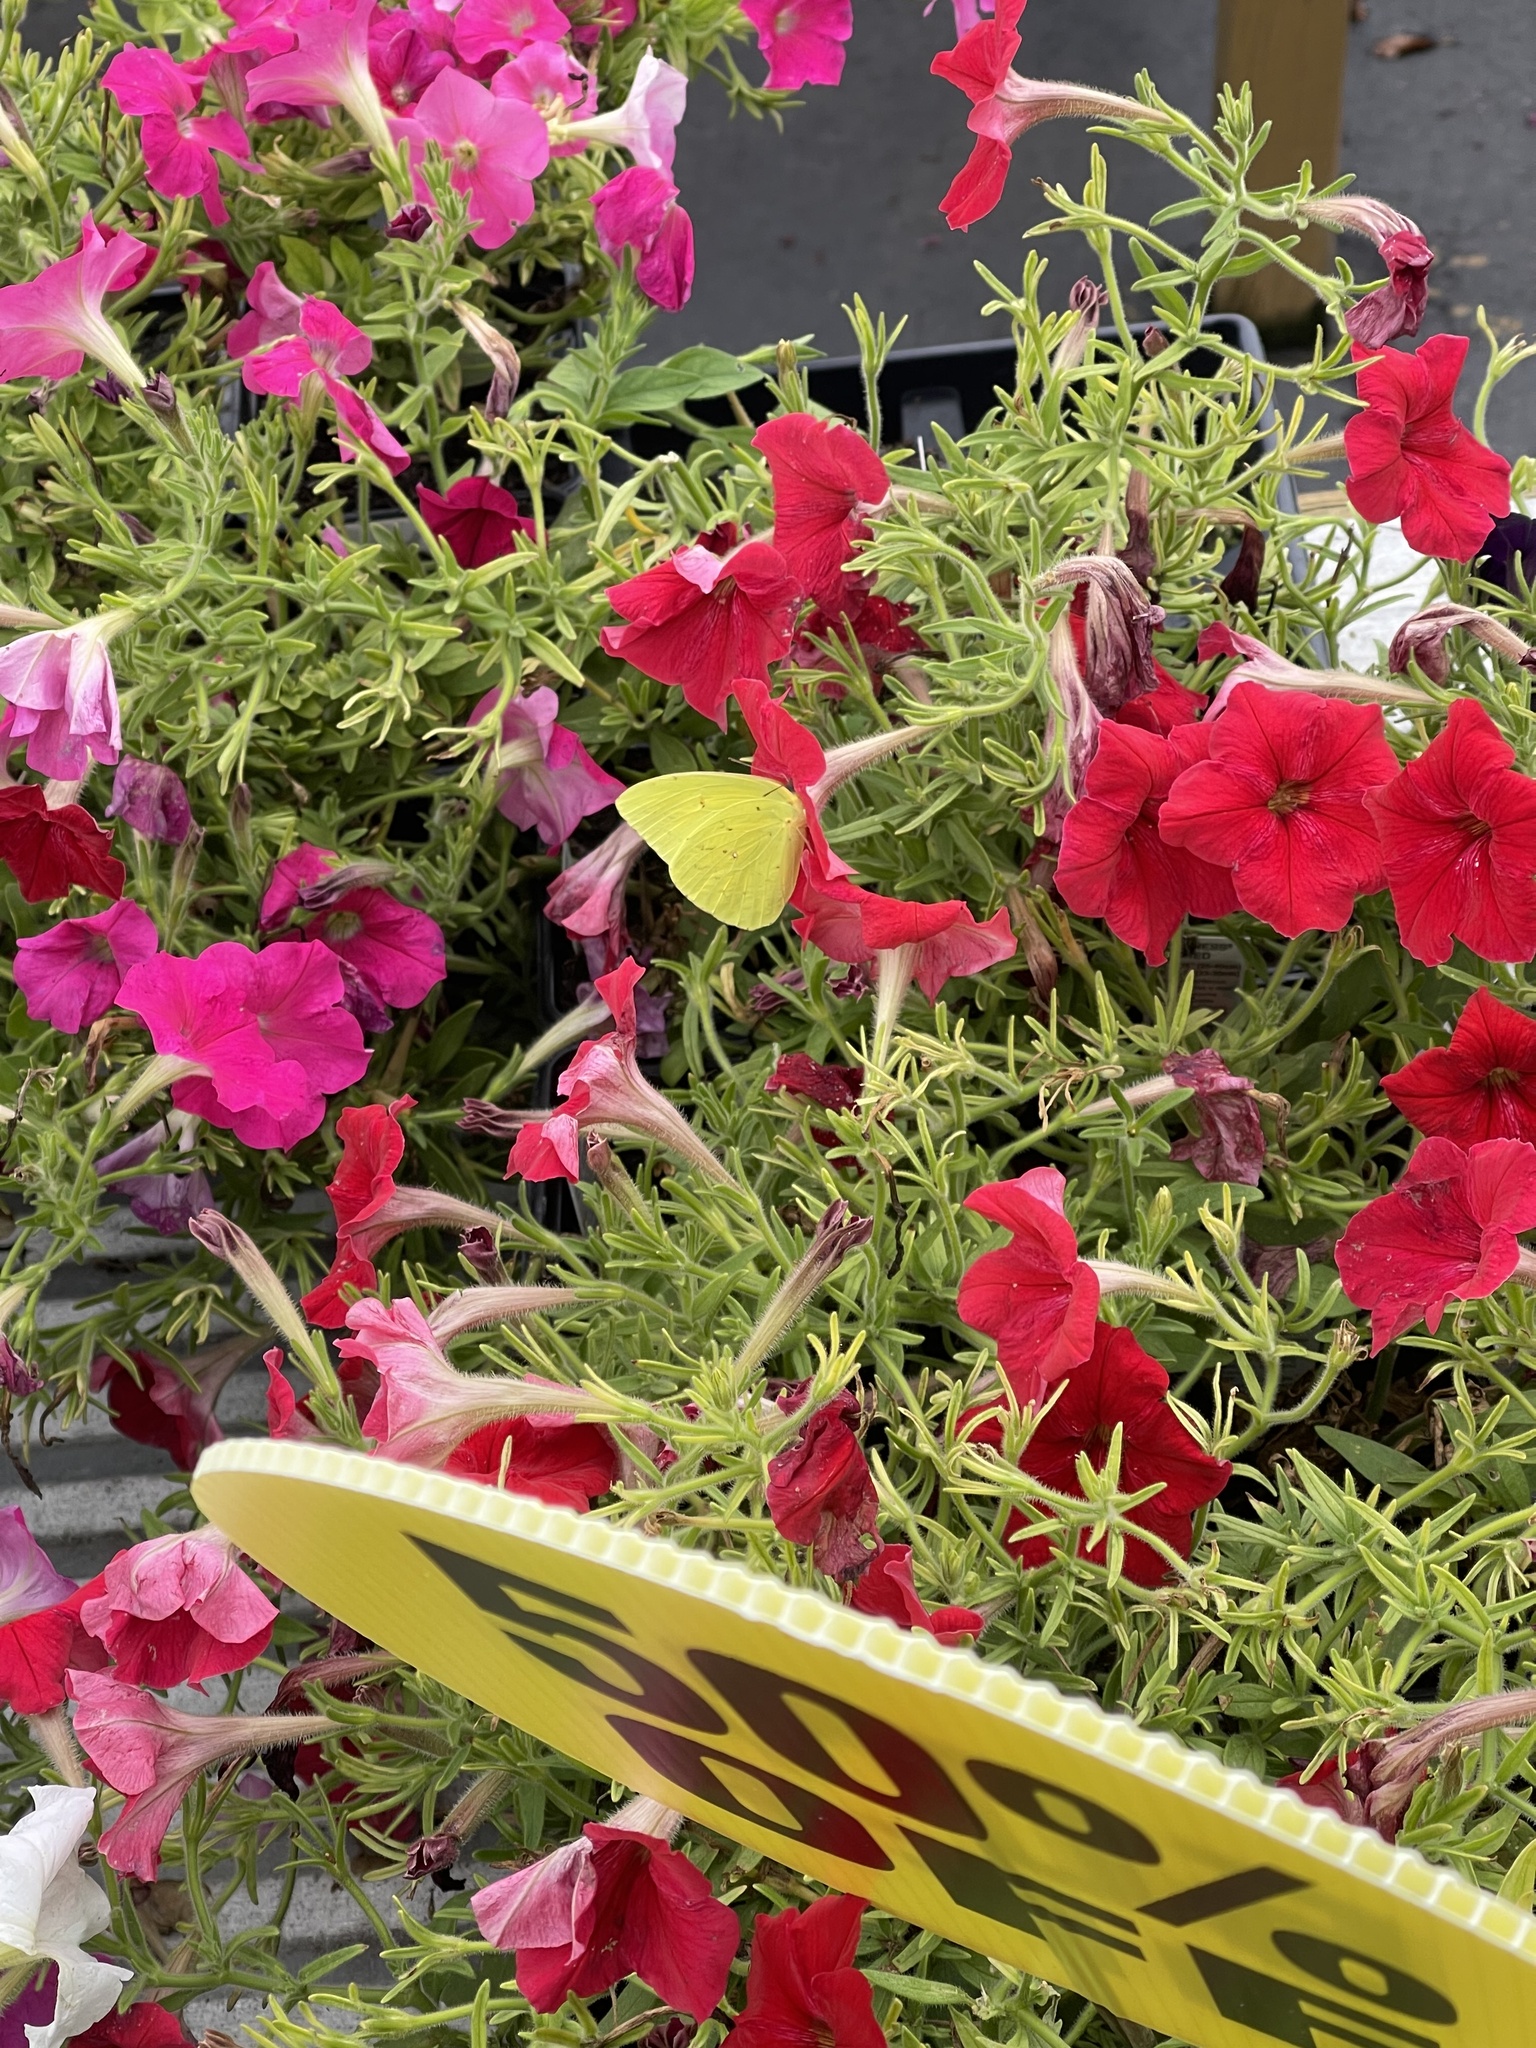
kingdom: Animalia
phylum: Arthropoda
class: Insecta
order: Lepidoptera
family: Pieridae
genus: Phoebis
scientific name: Phoebis sennae
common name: Cloudless sulphur
